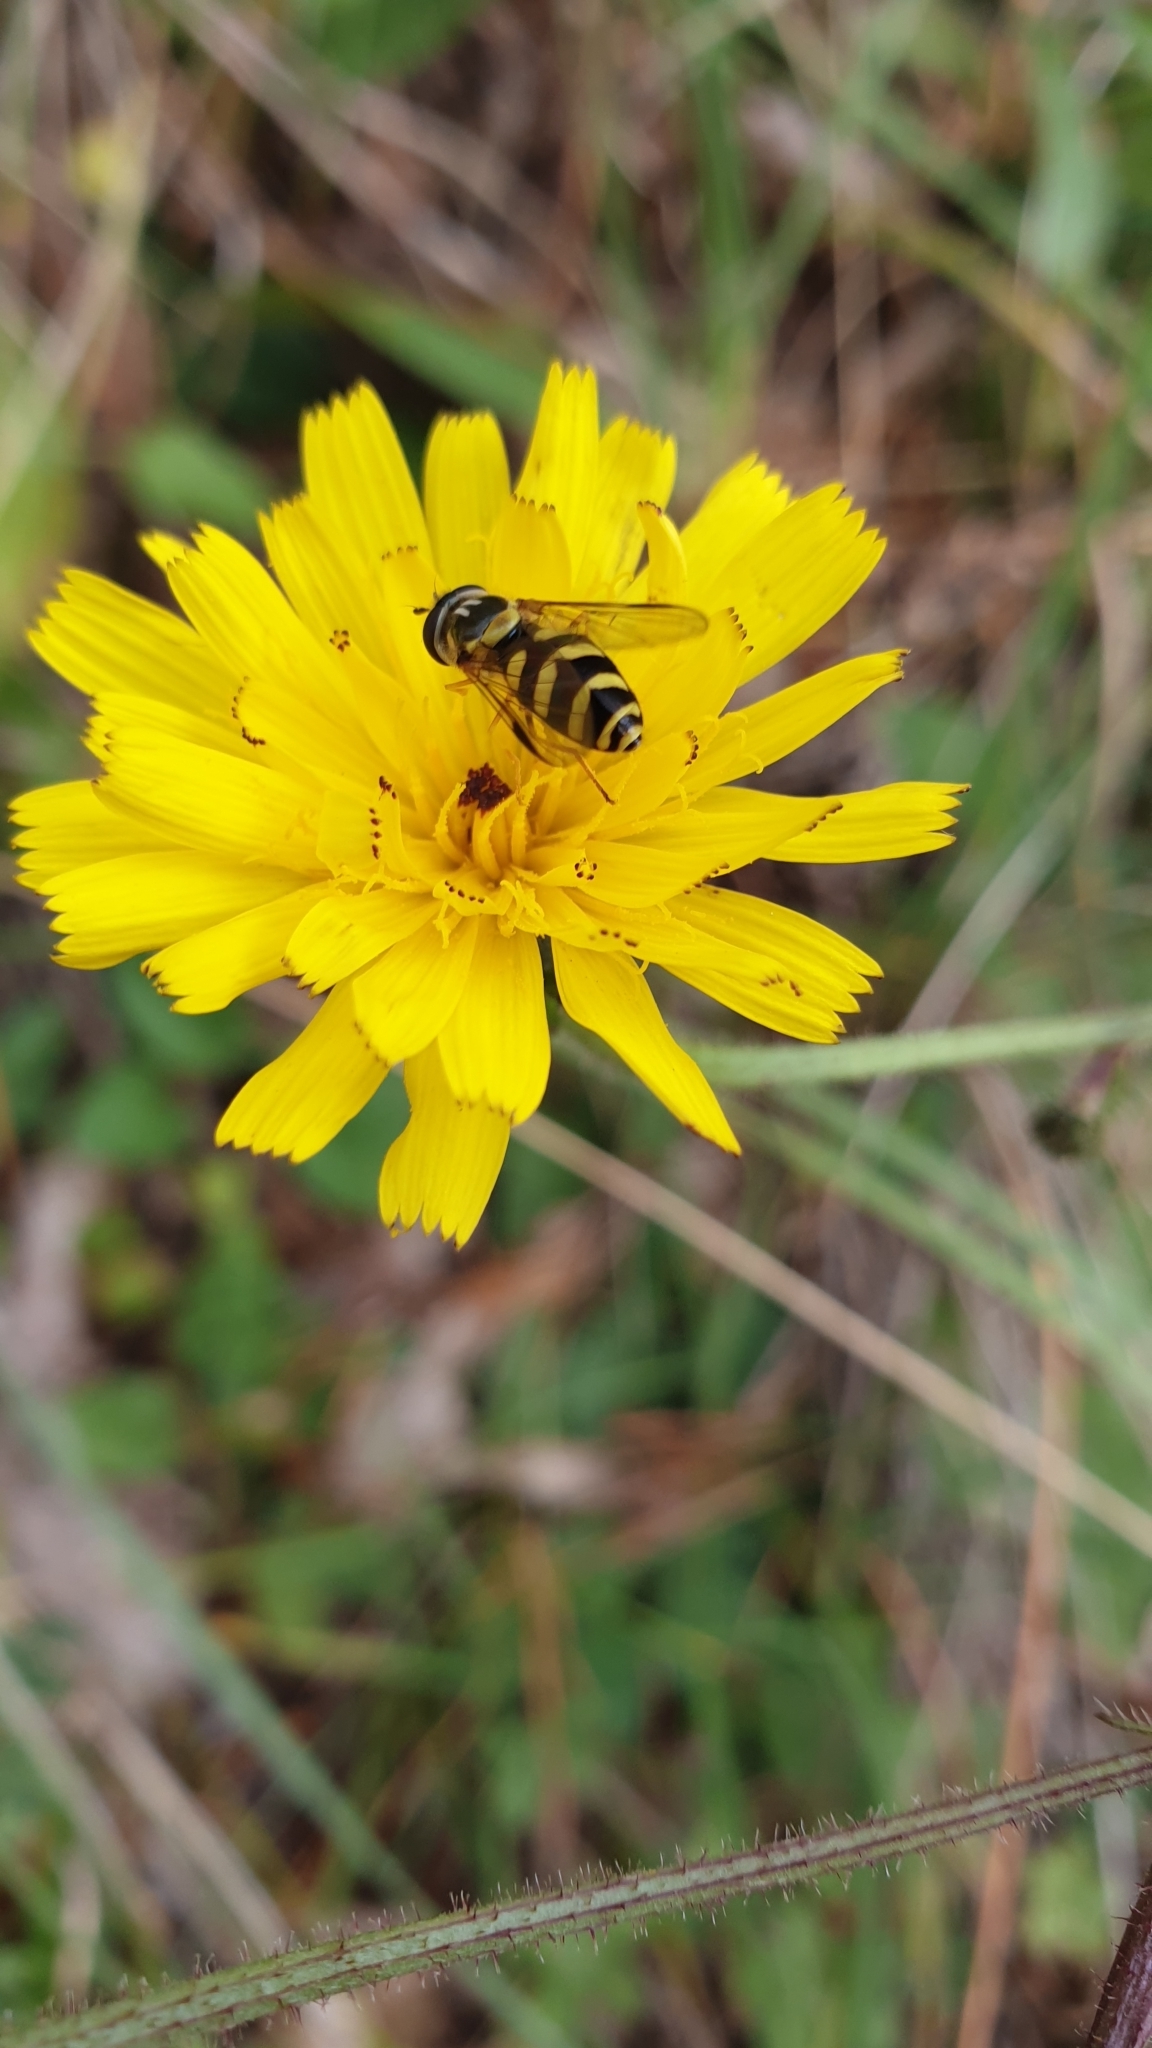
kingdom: Animalia
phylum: Arthropoda
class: Insecta
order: Diptera
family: Syrphidae
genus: Dasysyrphus
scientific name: Dasysyrphus albostriatus
